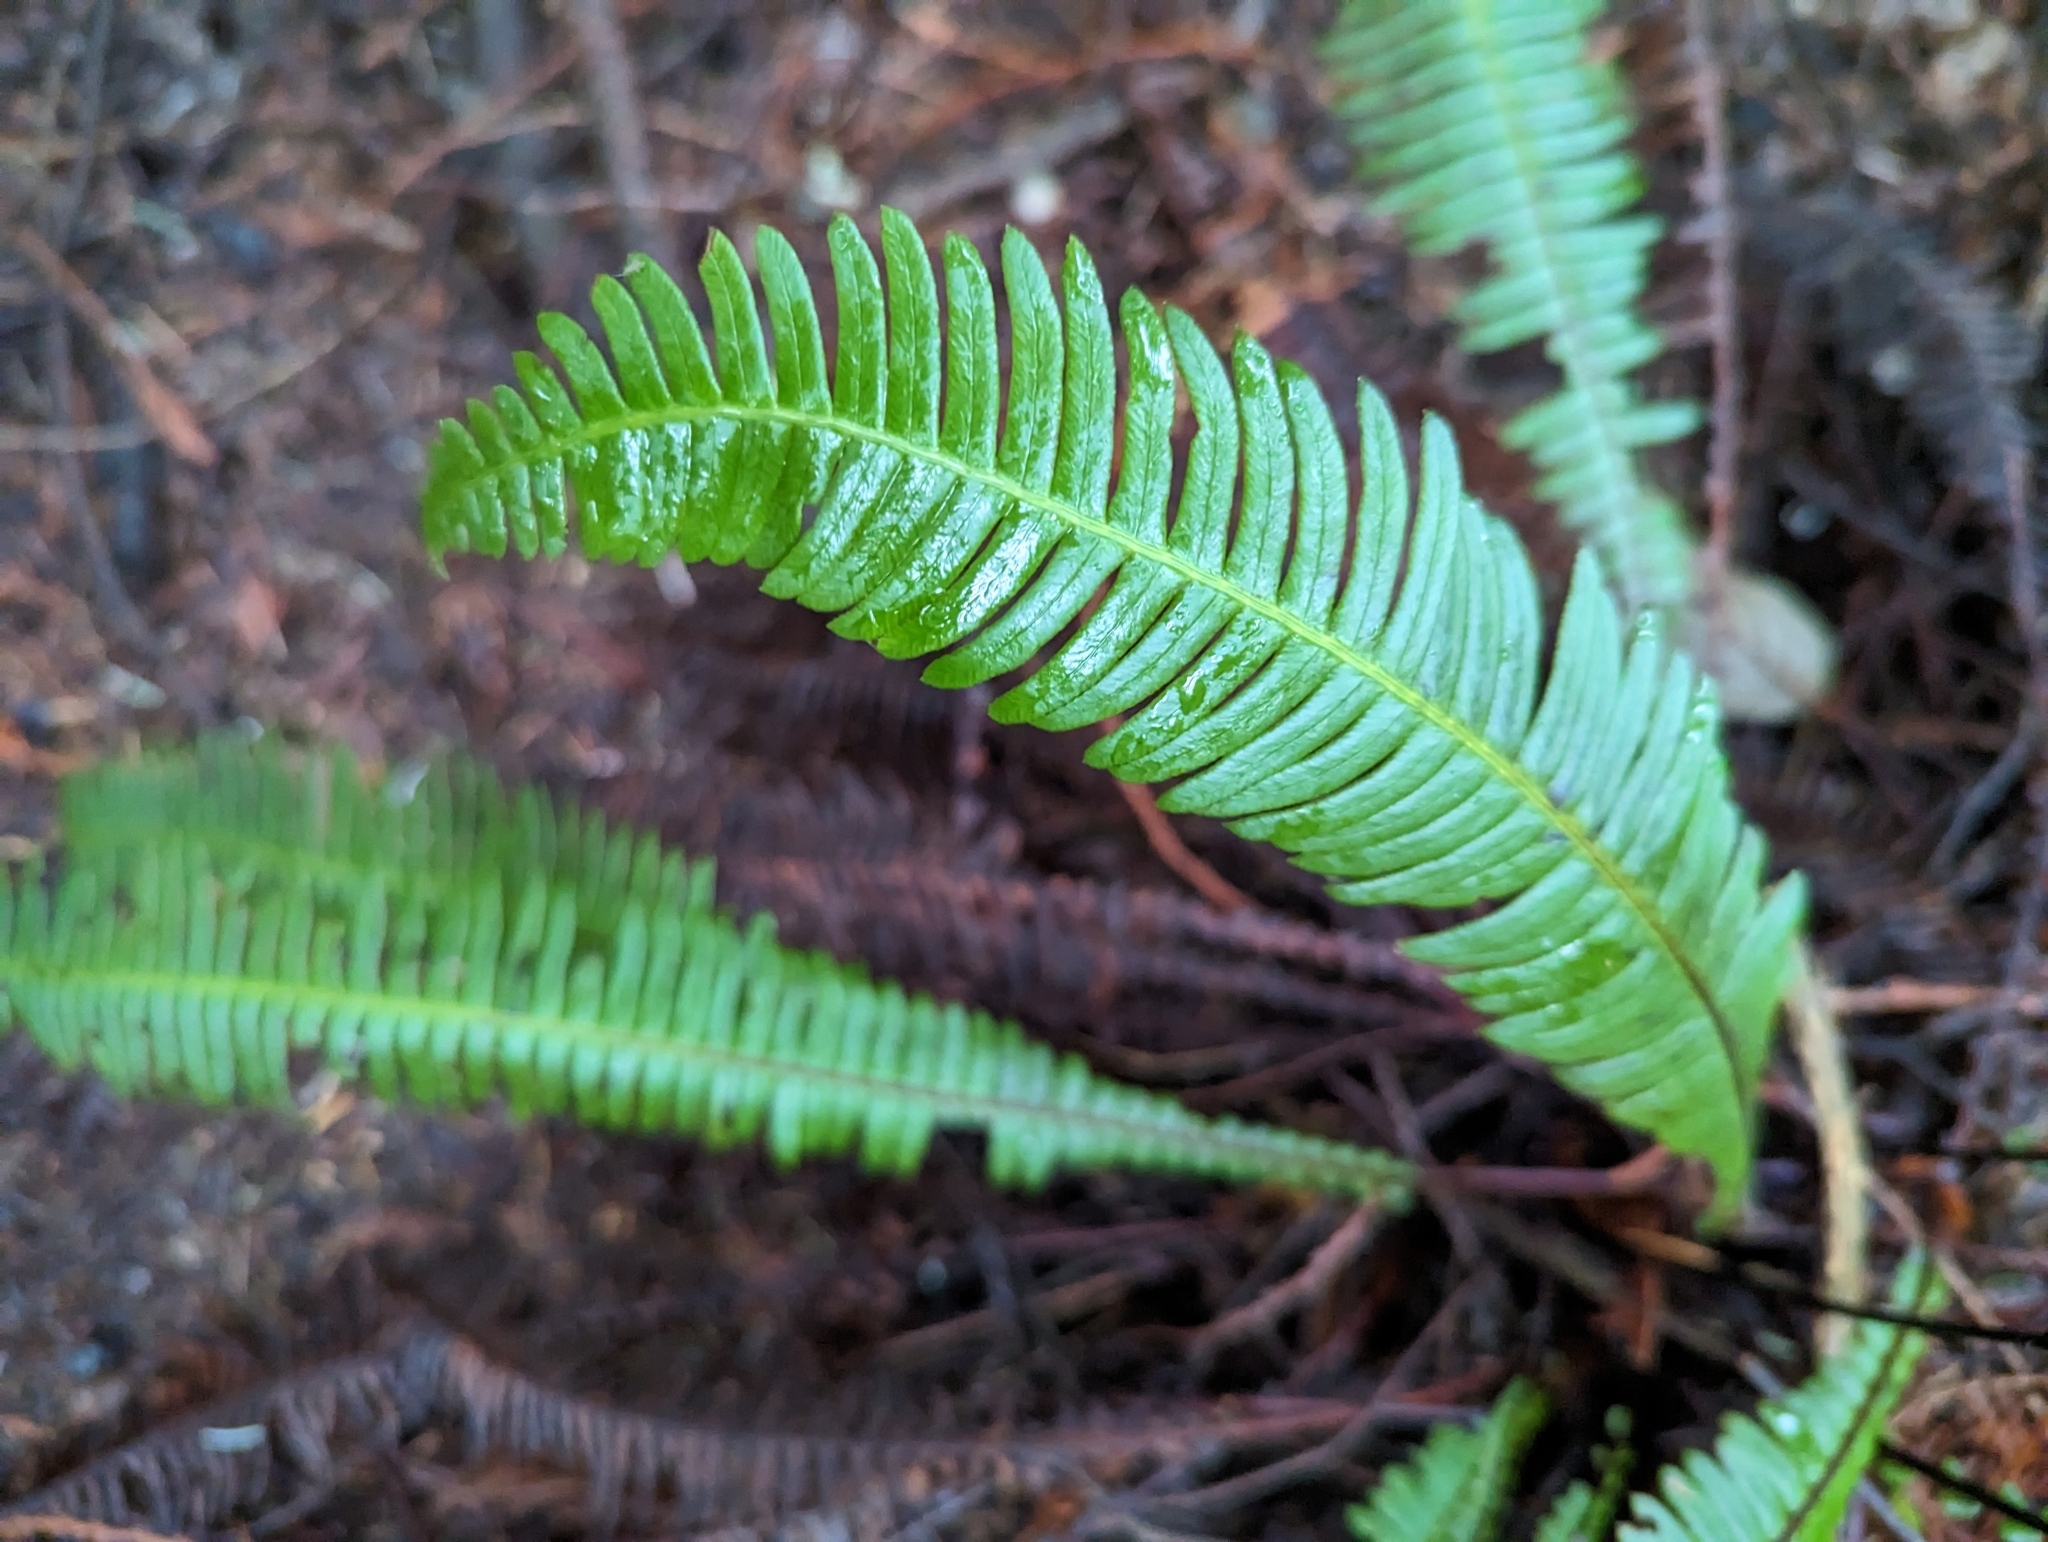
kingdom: Plantae
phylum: Tracheophyta
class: Polypodiopsida
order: Polypodiales
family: Blechnaceae
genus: Struthiopteris
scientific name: Struthiopteris spicant
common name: Deer fern
